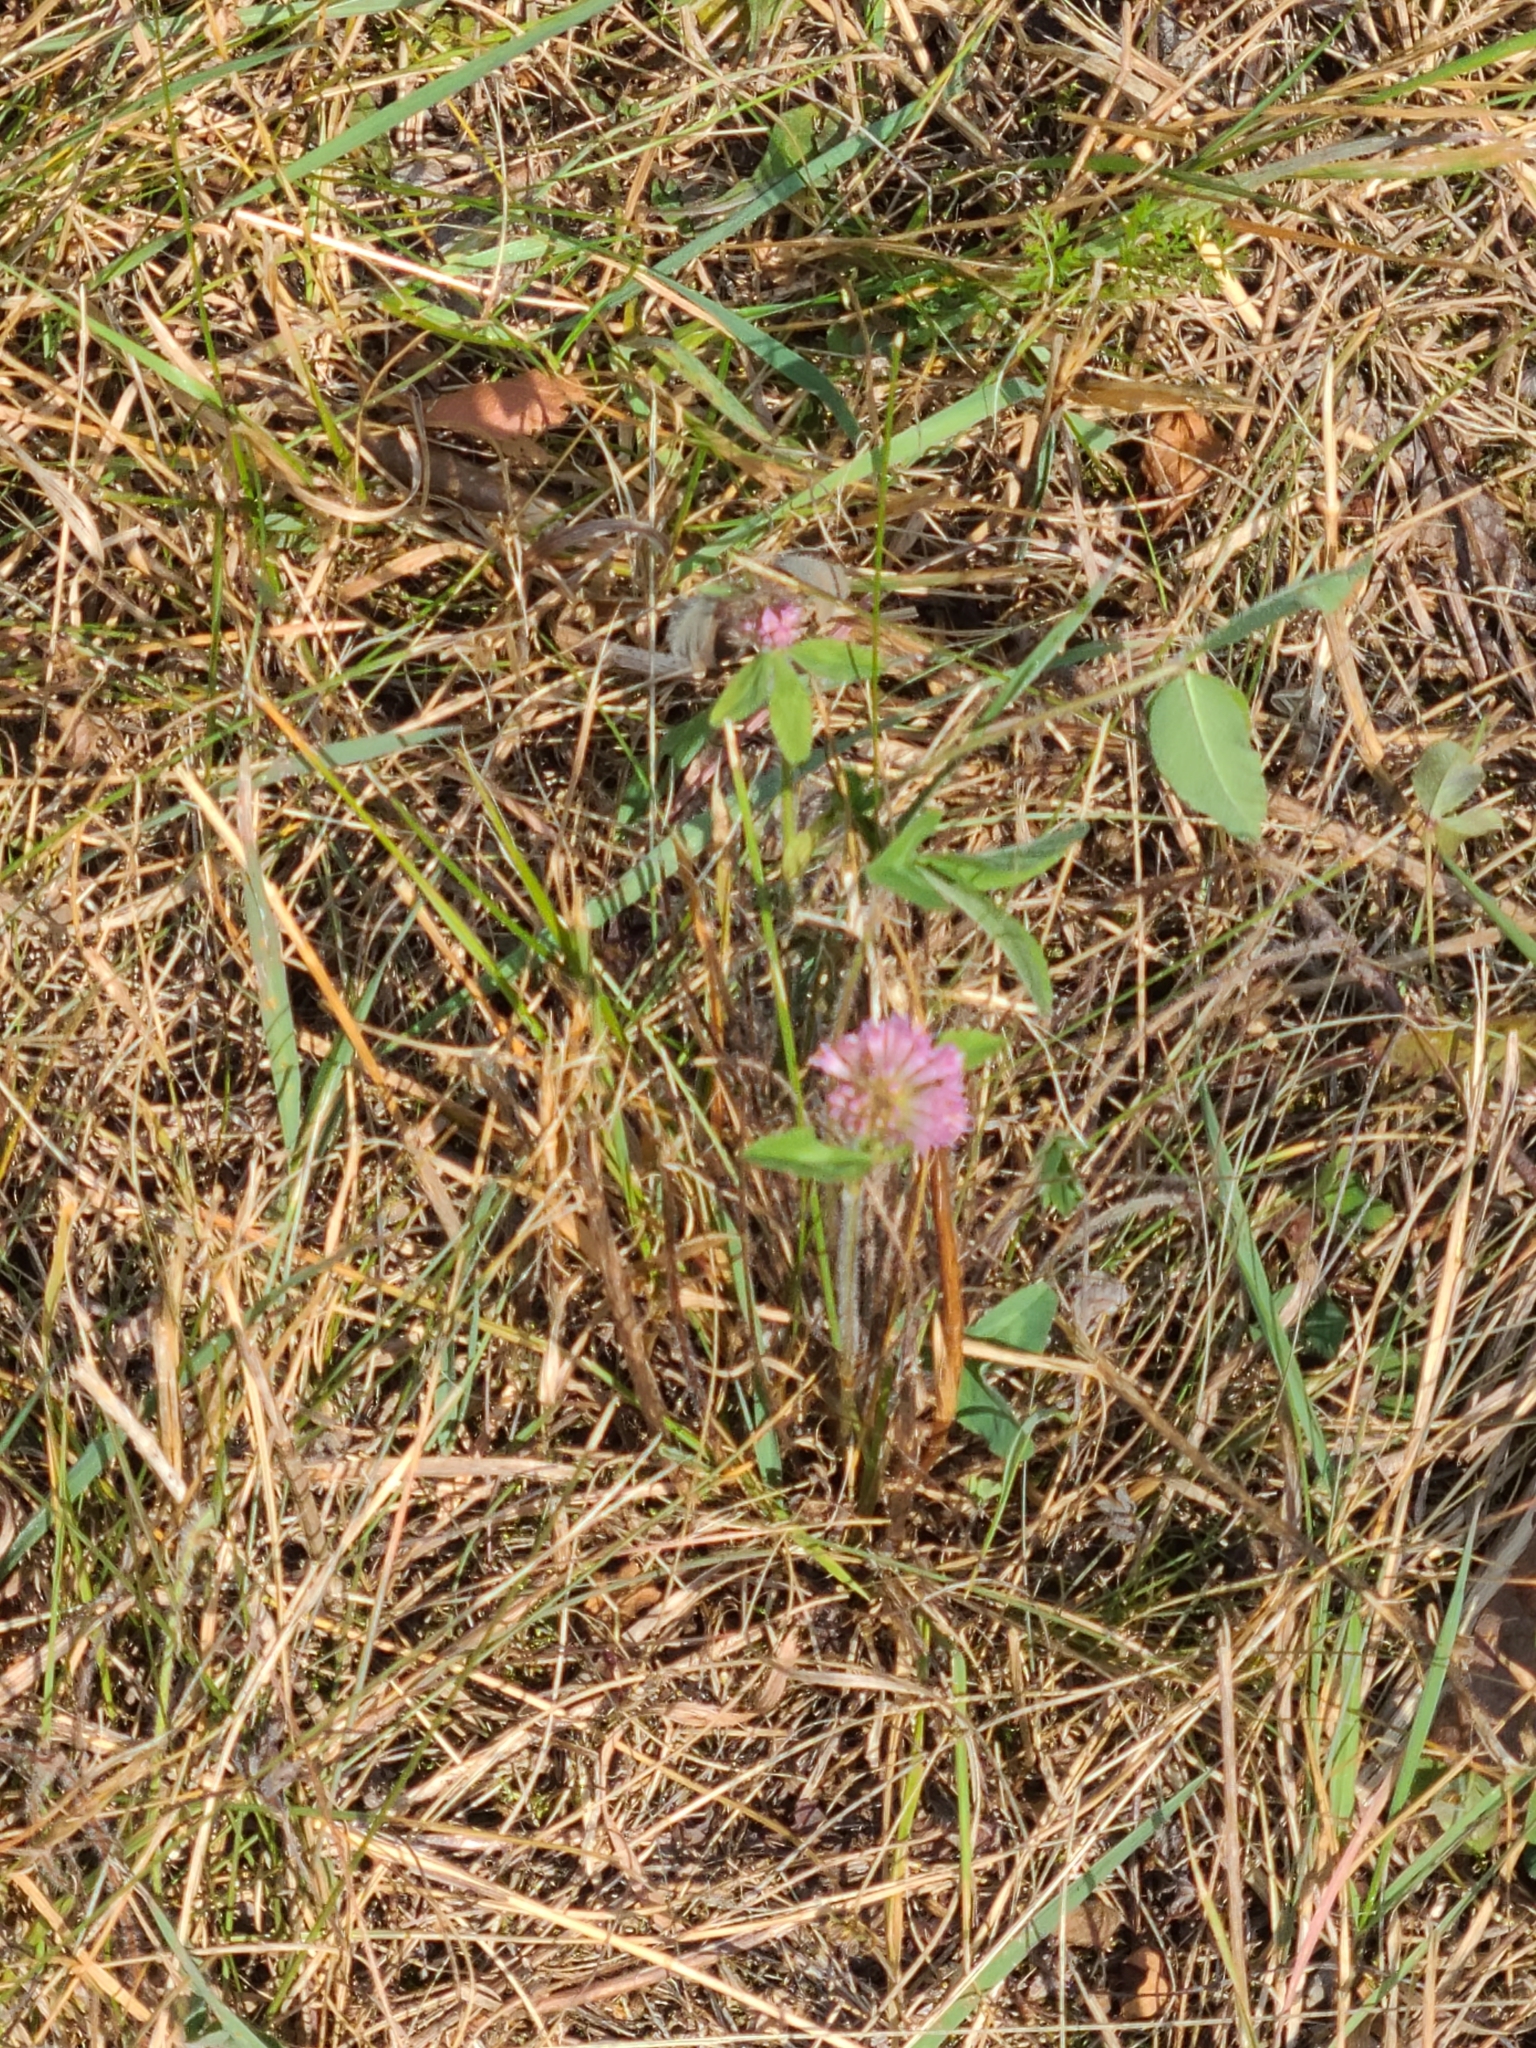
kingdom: Plantae
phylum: Tracheophyta
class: Magnoliopsida
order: Fabales
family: Fabaceae
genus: Trifolium
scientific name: Trifolium pratense
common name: Red clover
